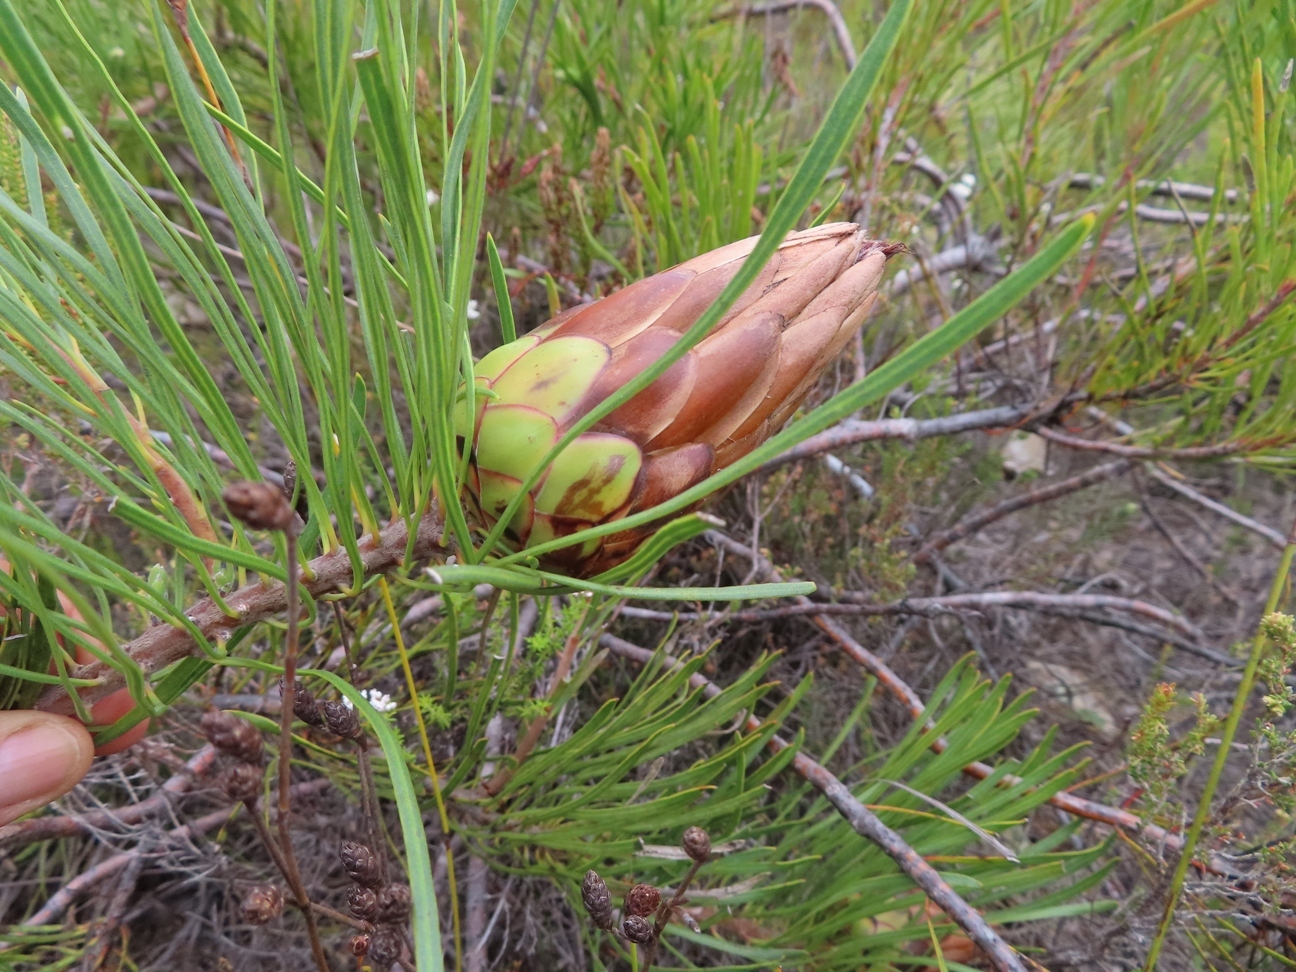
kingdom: Plantae
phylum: Tracheophyta
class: Magnoliopsida
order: Proteales
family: Proteaceae
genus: Protea
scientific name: Protea pudens
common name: Bashful sugarbush
